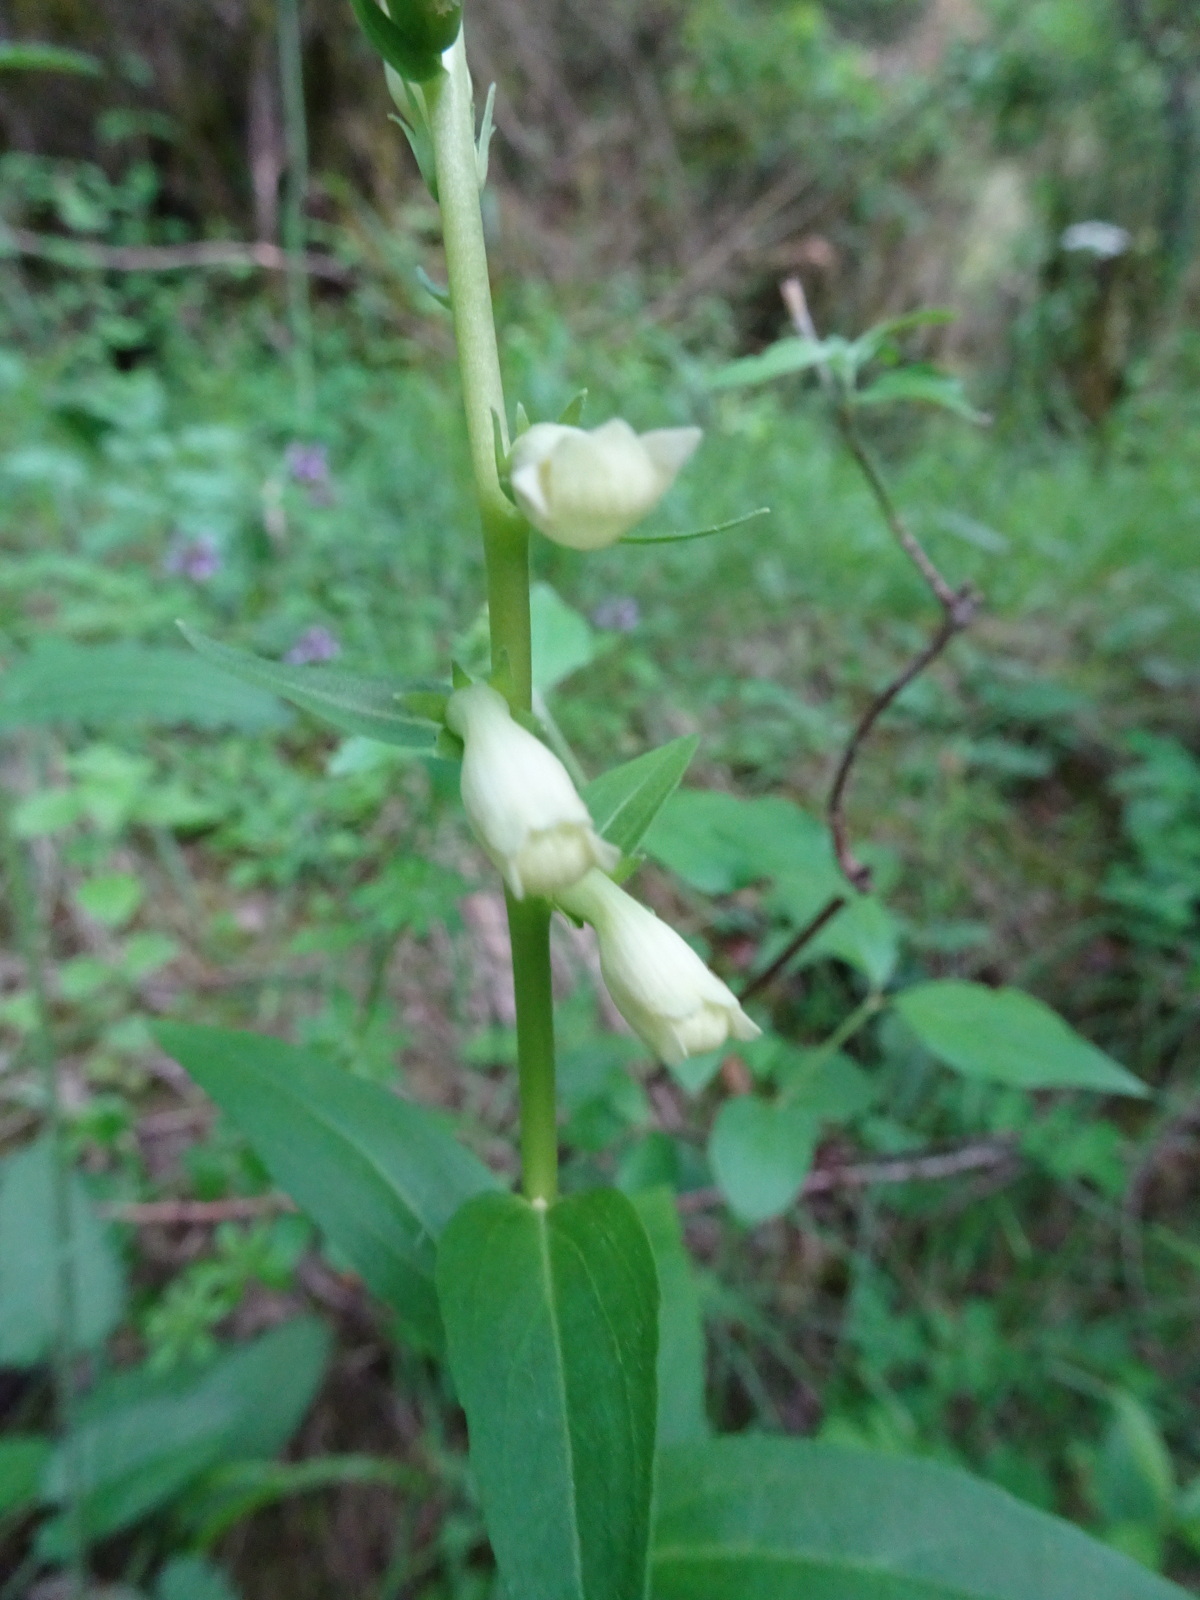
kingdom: Plantae
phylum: Tracheophyta
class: Magnoliopsida
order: Lamiales
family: Plantaginaceae
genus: Digitalis
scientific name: Digitalis lutea
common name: Straw foxglove
